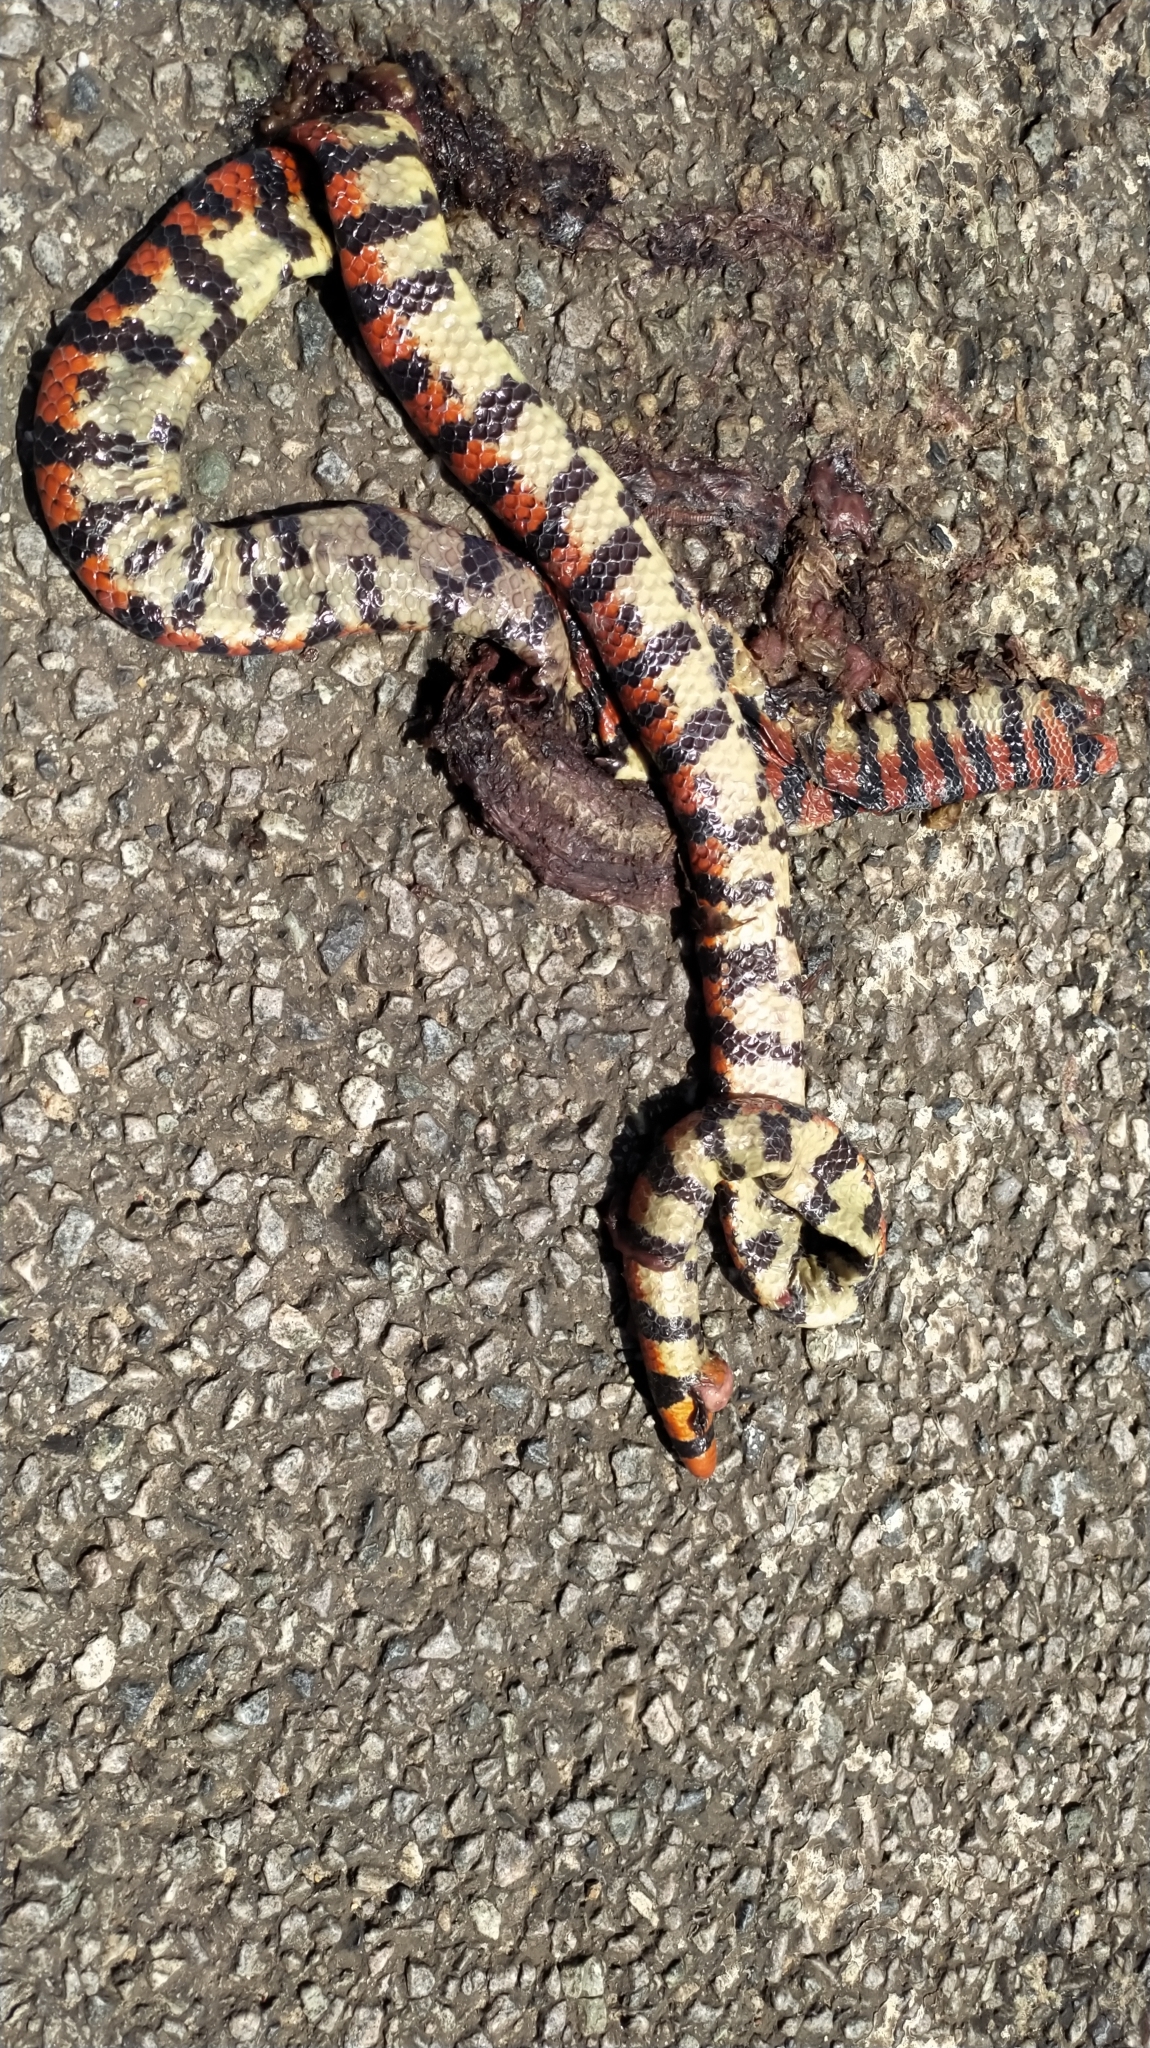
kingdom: Animalia
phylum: Chordata
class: Squamata
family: Aniliidae
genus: Anilius
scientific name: Anilius scytale
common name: Coral pipe snakes
